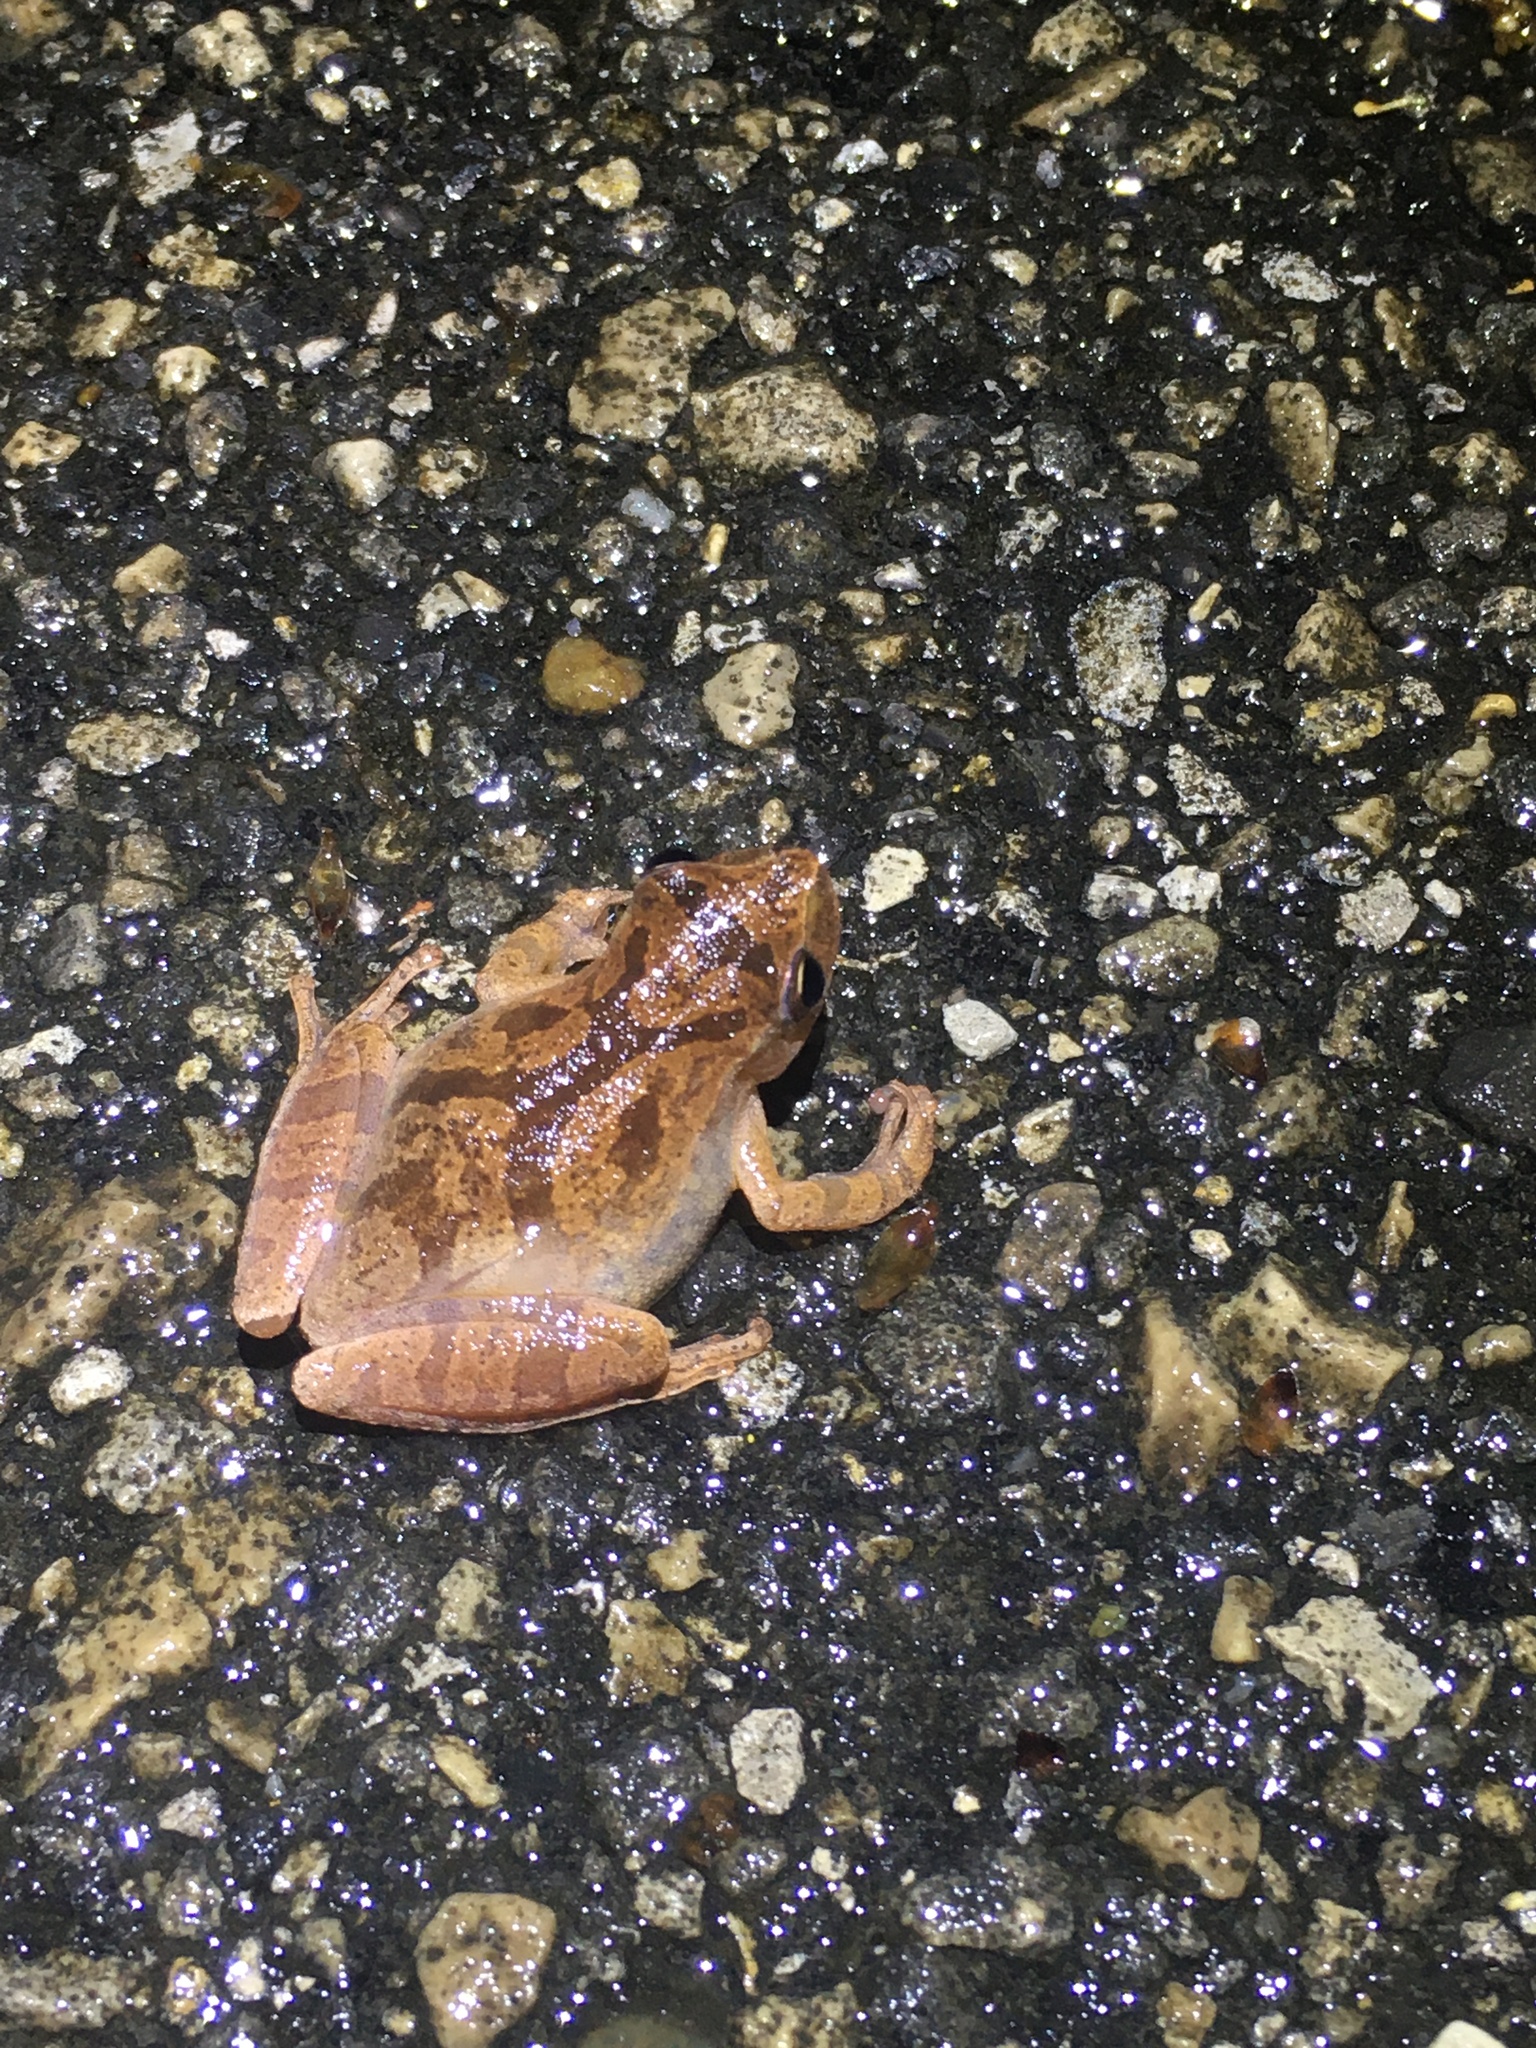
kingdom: Animalia
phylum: Chordata
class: Amphibia
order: Anura
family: Hylidae
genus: Pseudacris
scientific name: Pseudacris crucifer
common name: Spring peeper
